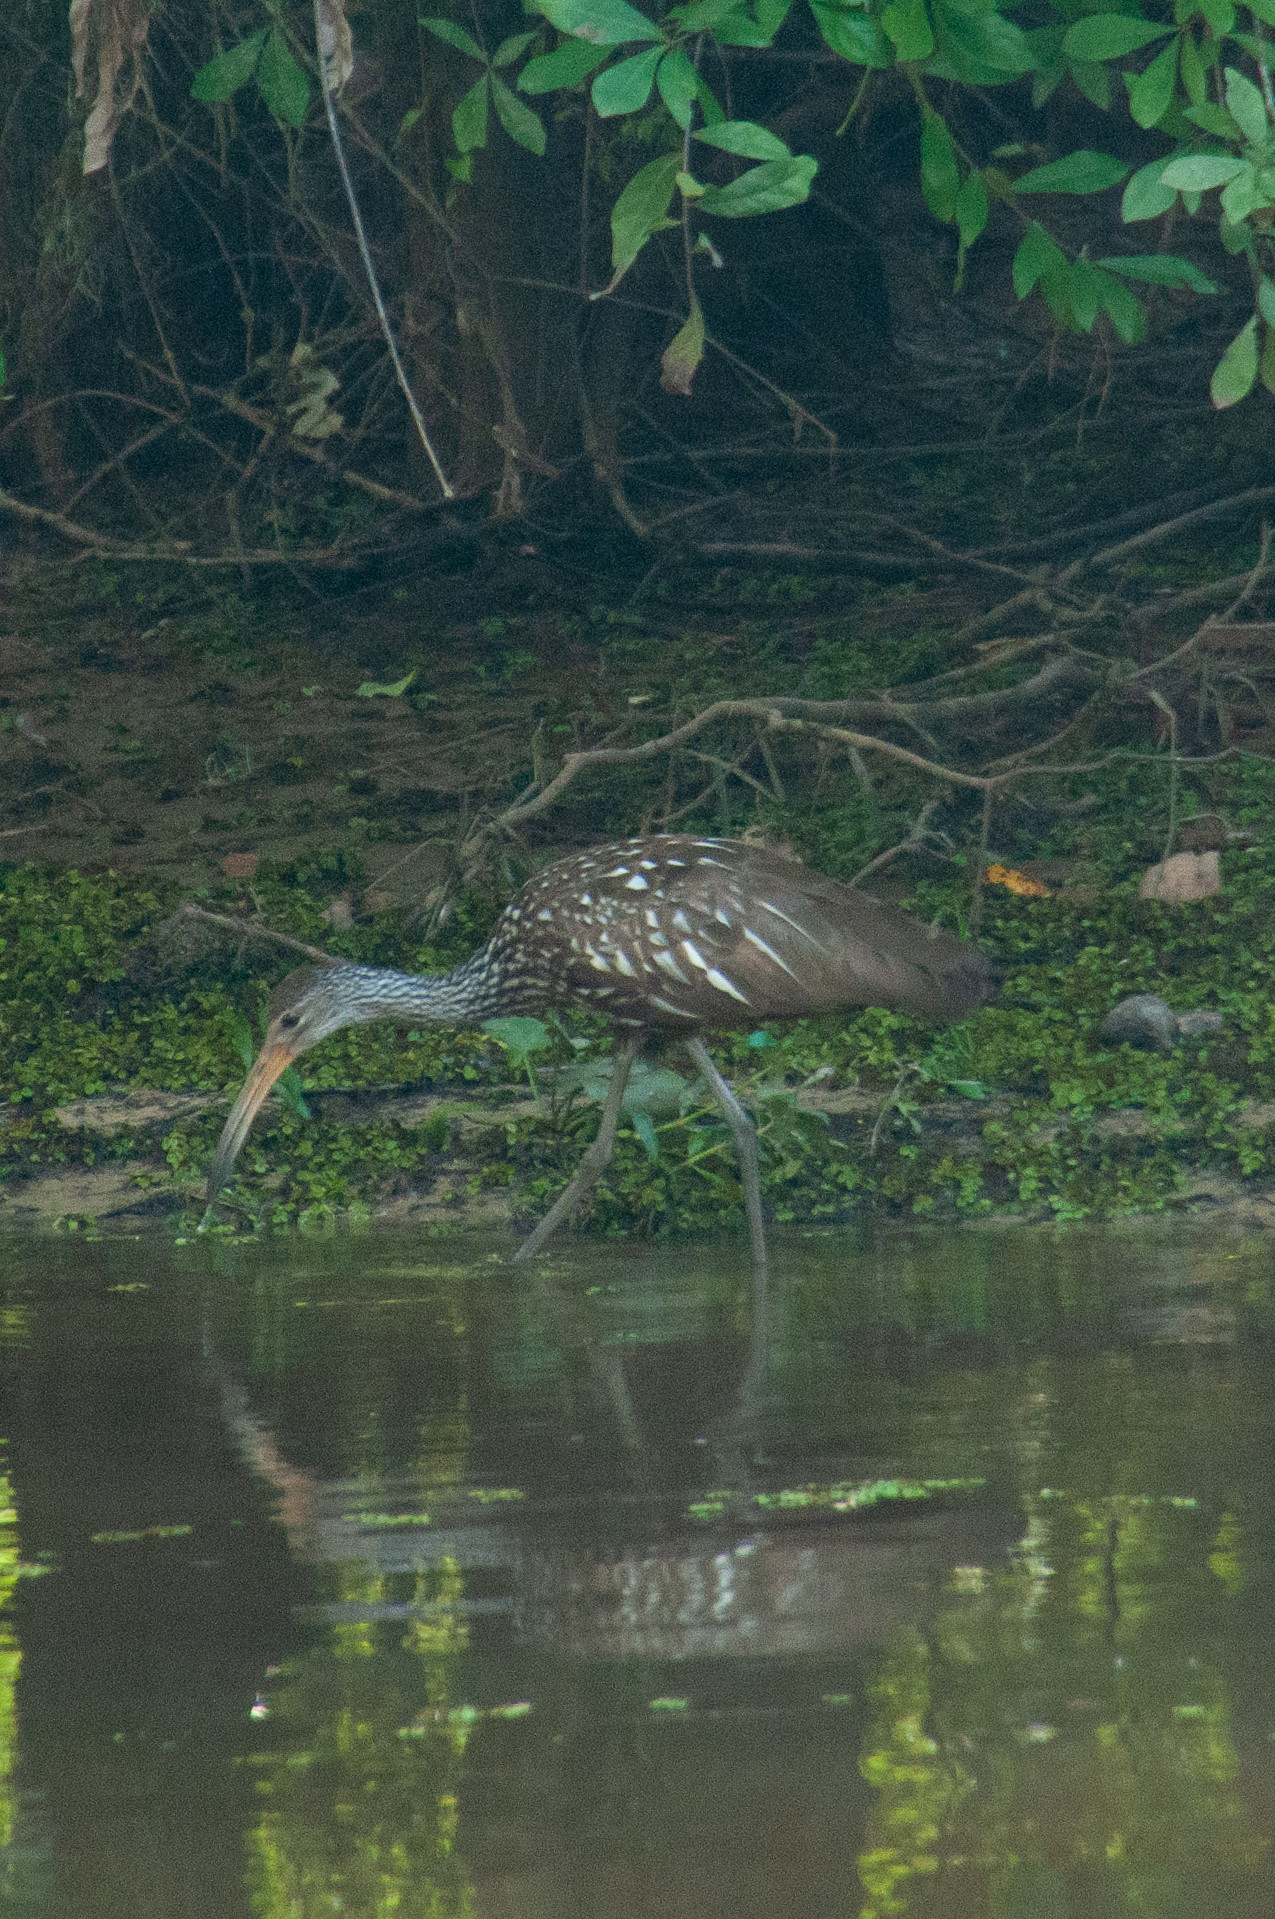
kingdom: Animalia
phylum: Chordata
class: Aves
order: Gruiformes
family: Aramidae
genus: Aramus
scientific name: Aramus guarauna
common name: Limpkin
